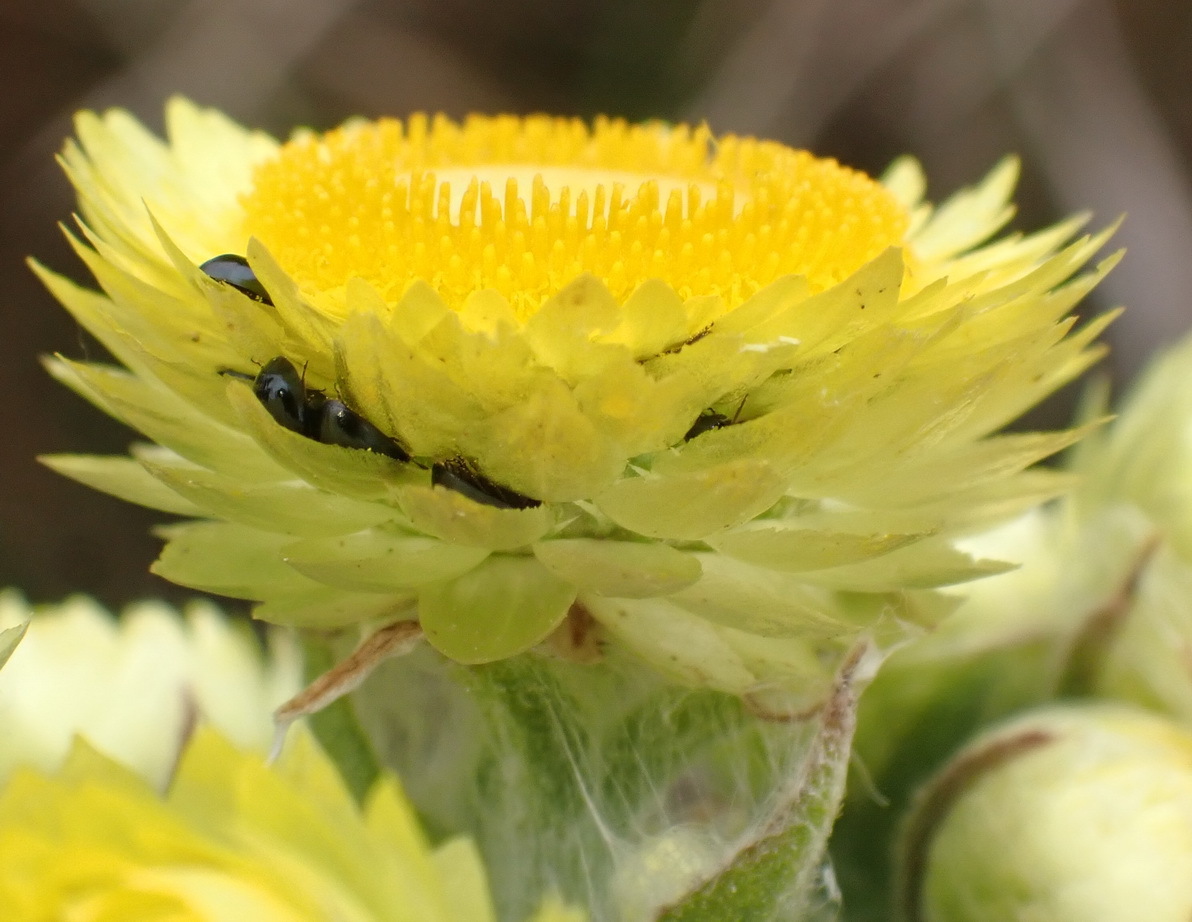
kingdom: Plantae
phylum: Tracheophyta
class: Magnoliopsida
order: Asterales
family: Asteraceae
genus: Helichrysum
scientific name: Helichrysum foetidum
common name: Stinking everlasting
